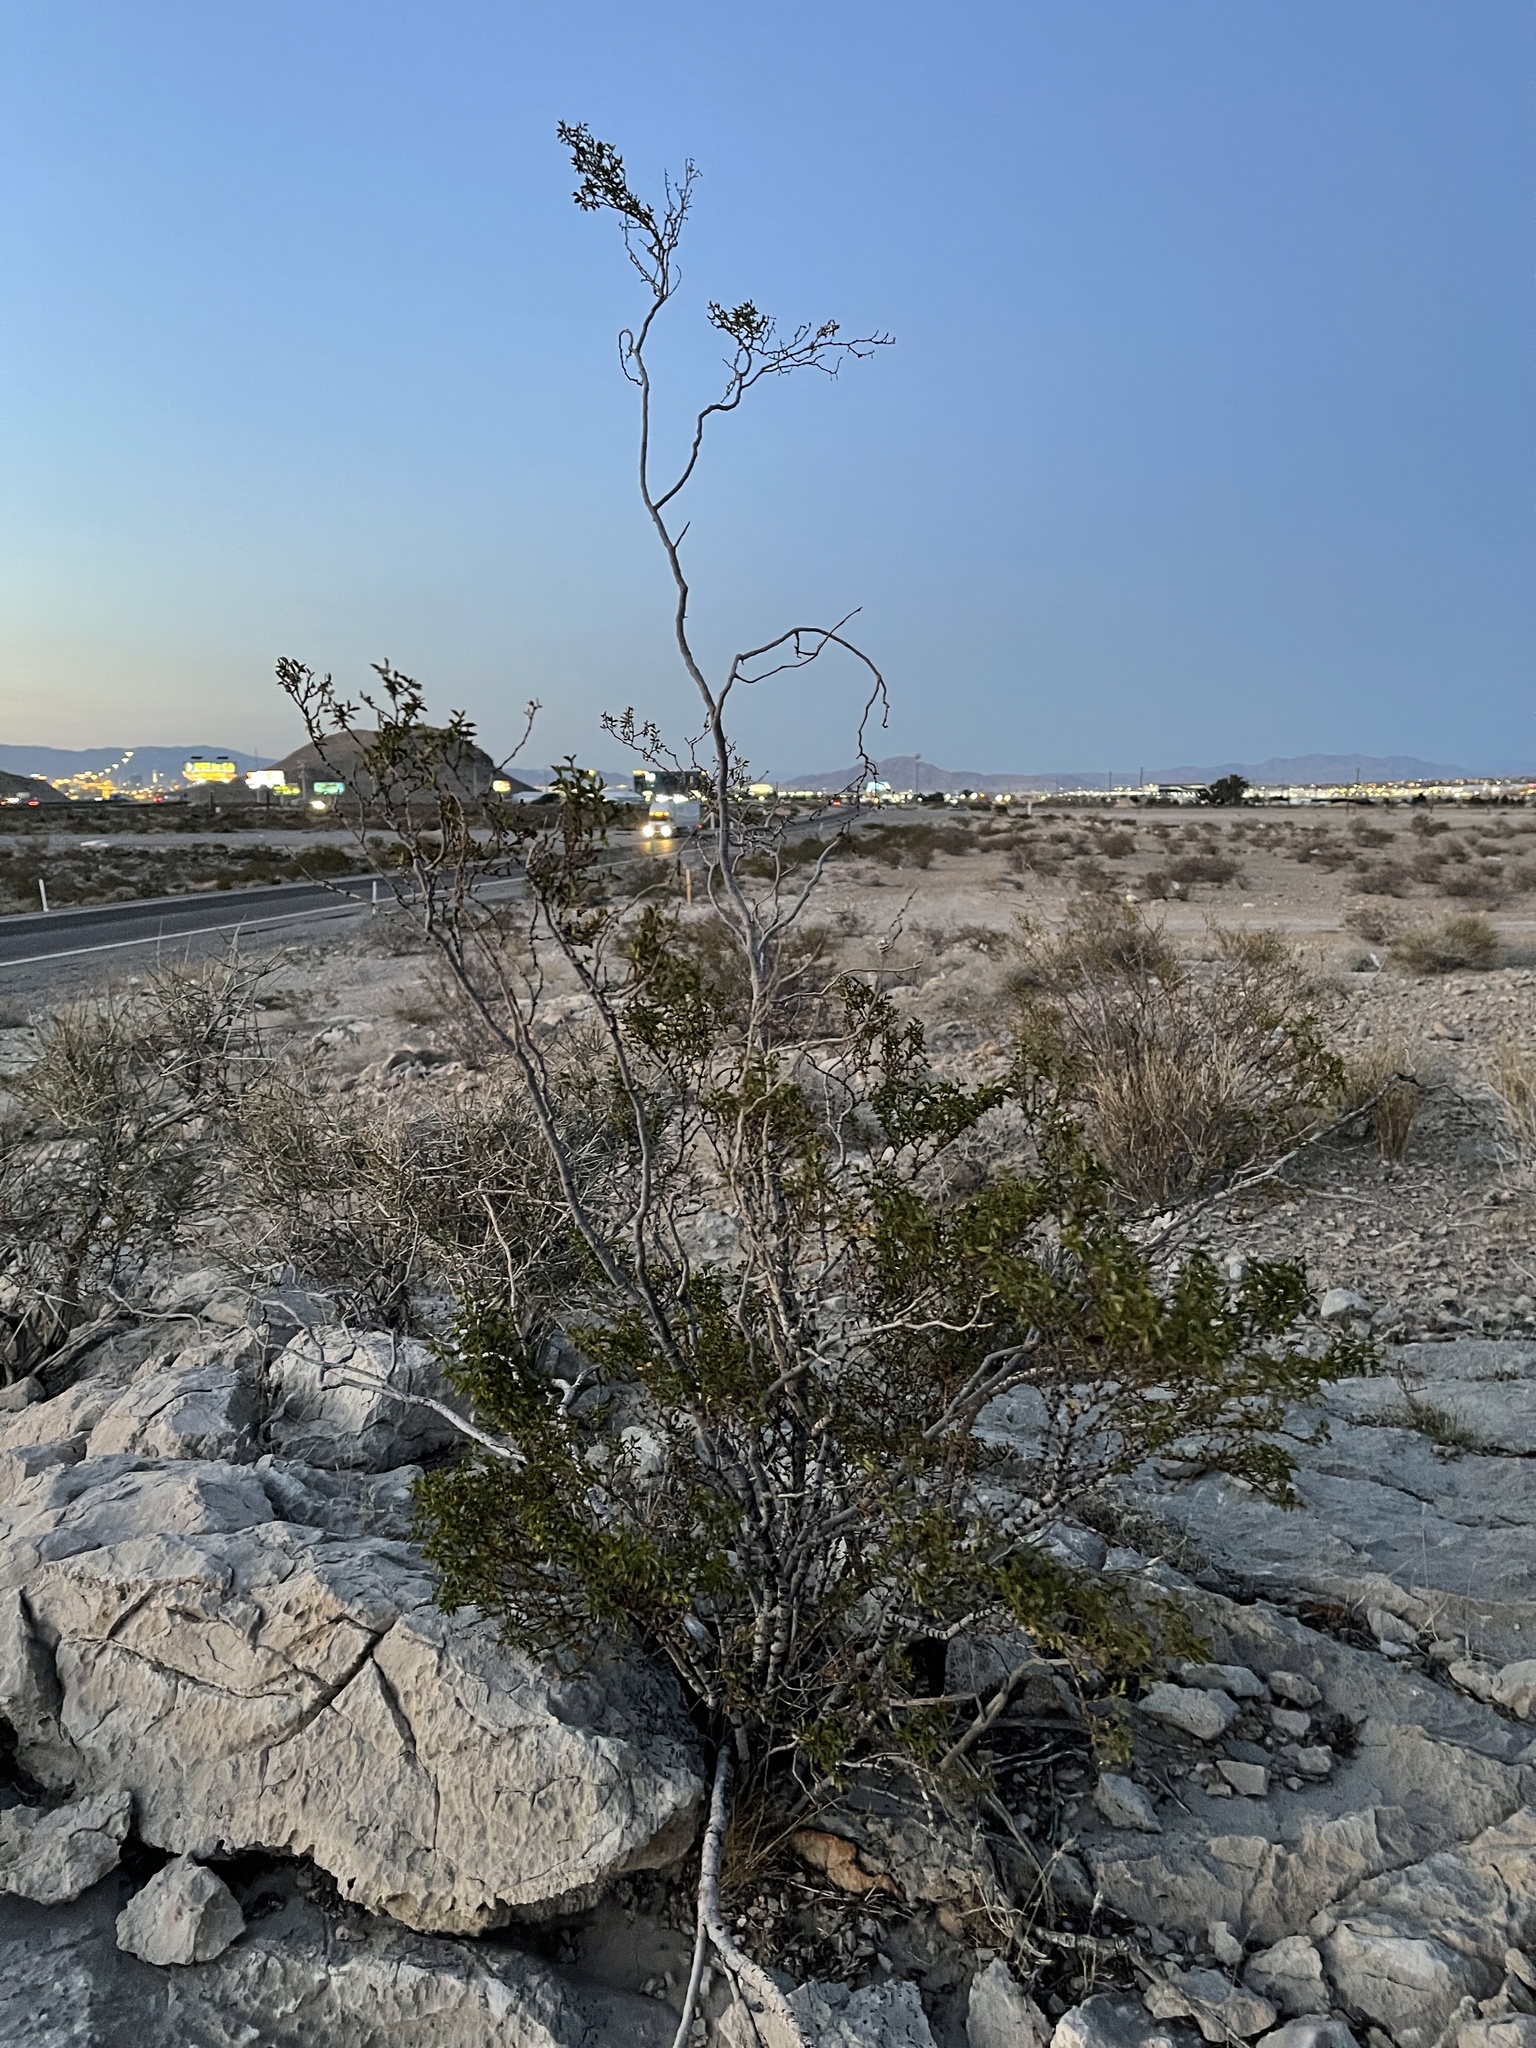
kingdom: Plantae
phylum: Tracheophyta
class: Magnoliopsida
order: Zygophyllales
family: Zygophyllaceae
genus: Larrea
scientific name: Larrea tridentata
